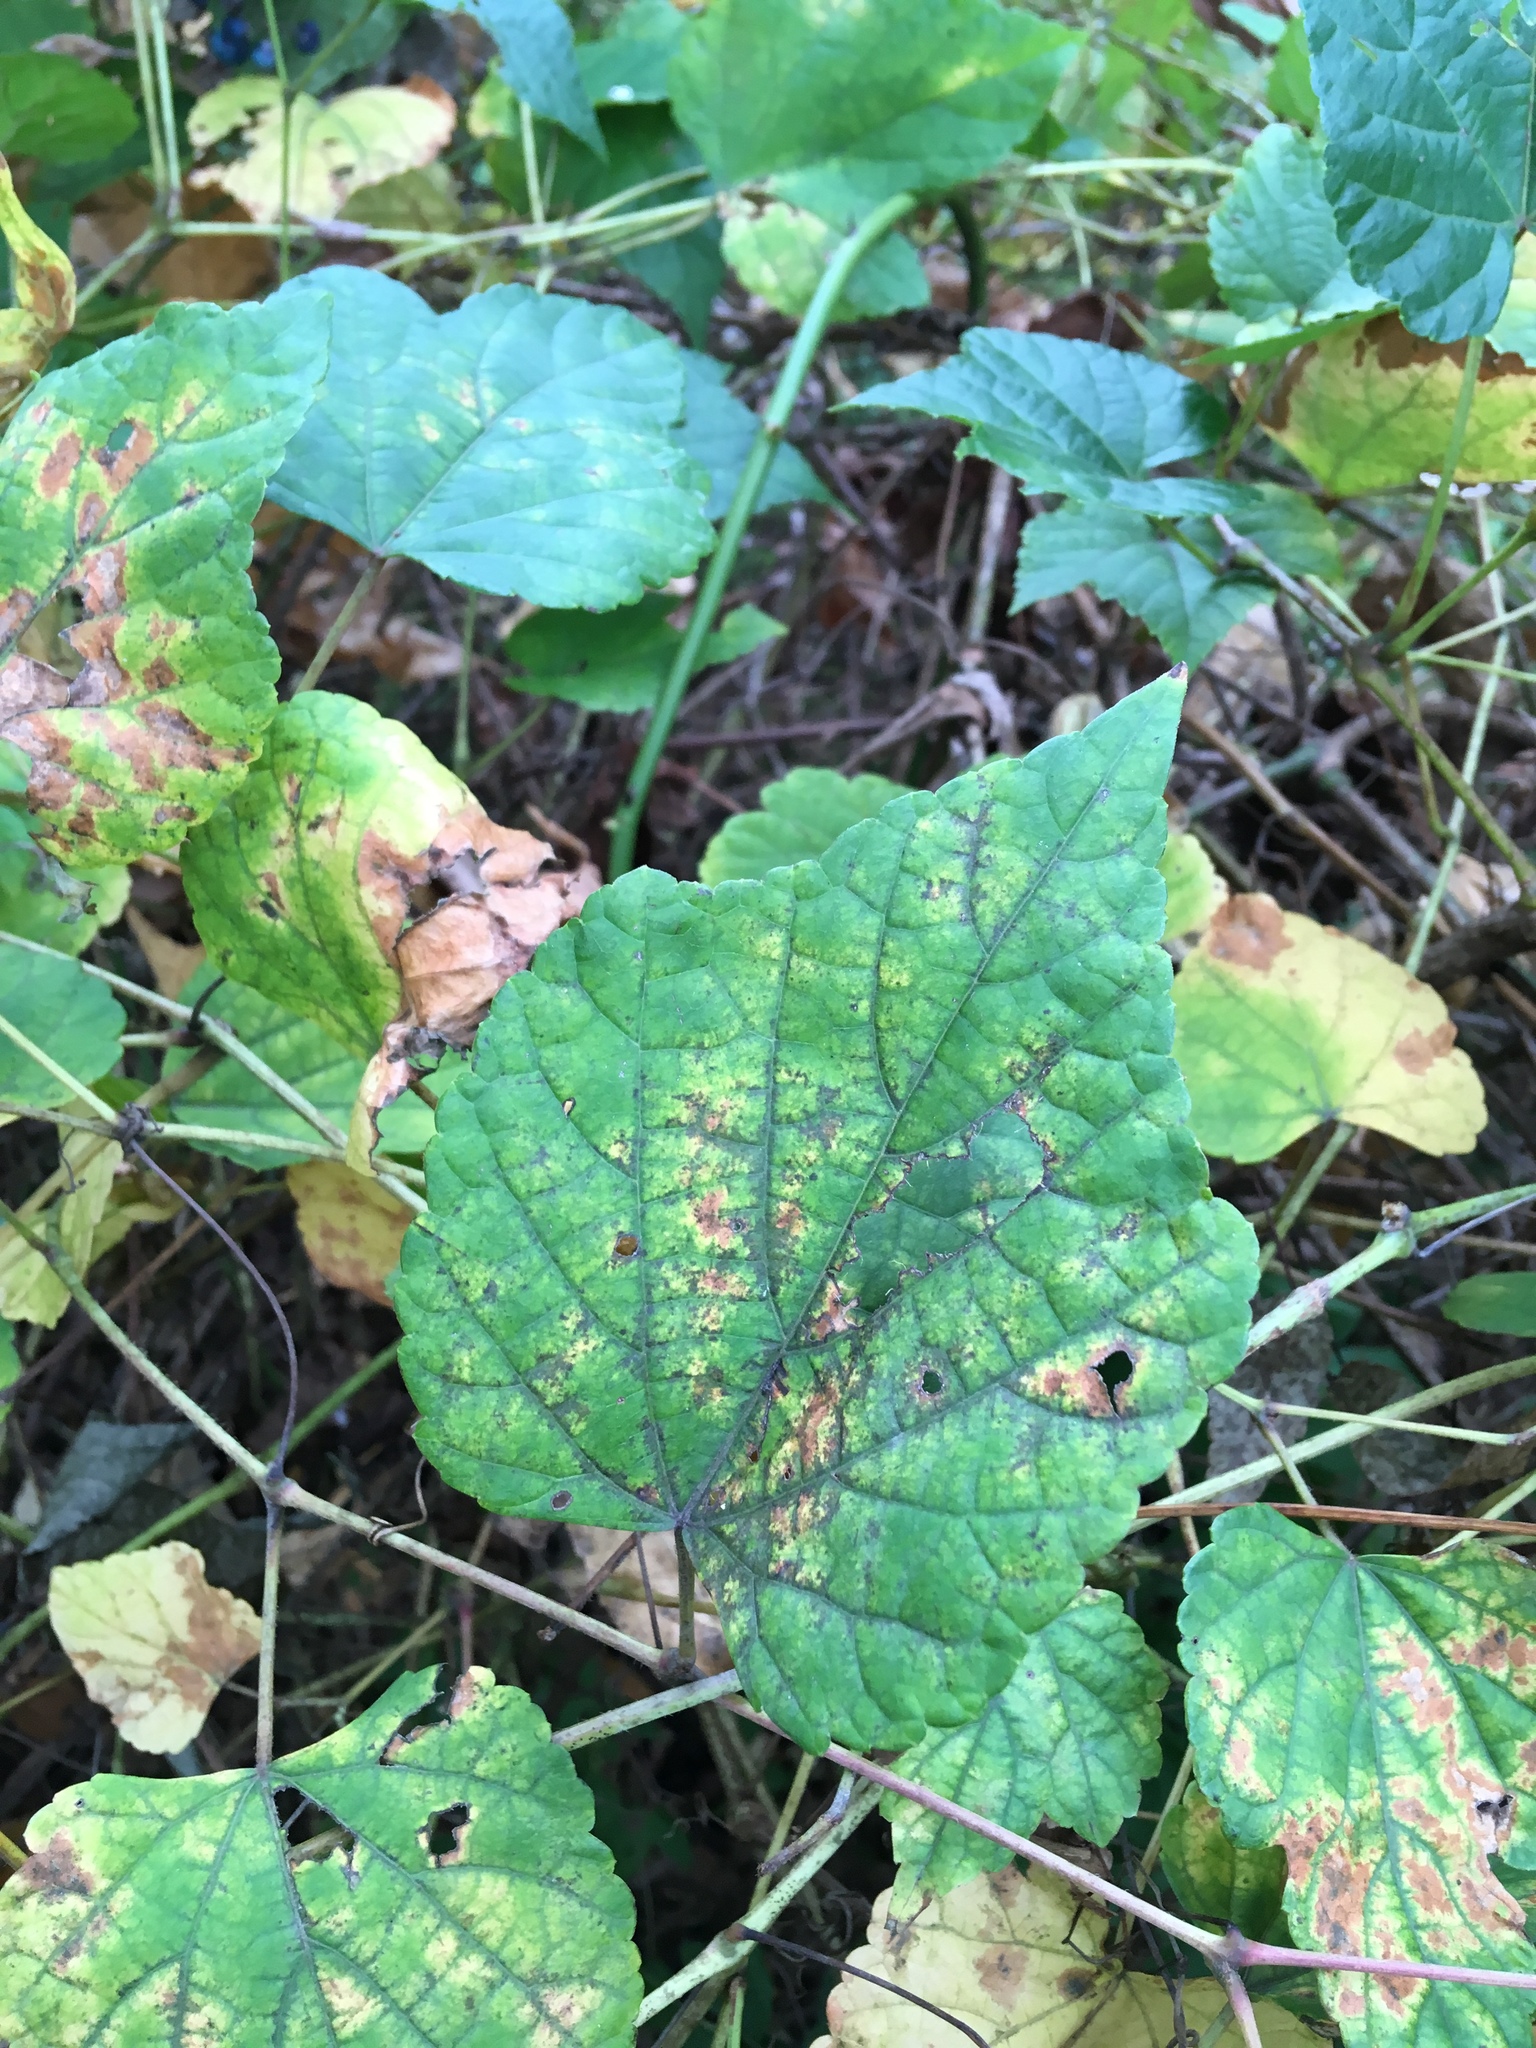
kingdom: Plantae
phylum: Tracheophyta
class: Magnoliopsida
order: Vitales
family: Vitaceae
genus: Ampelopsis
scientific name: Ampelopsis glandulosa
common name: Amur peppervine
